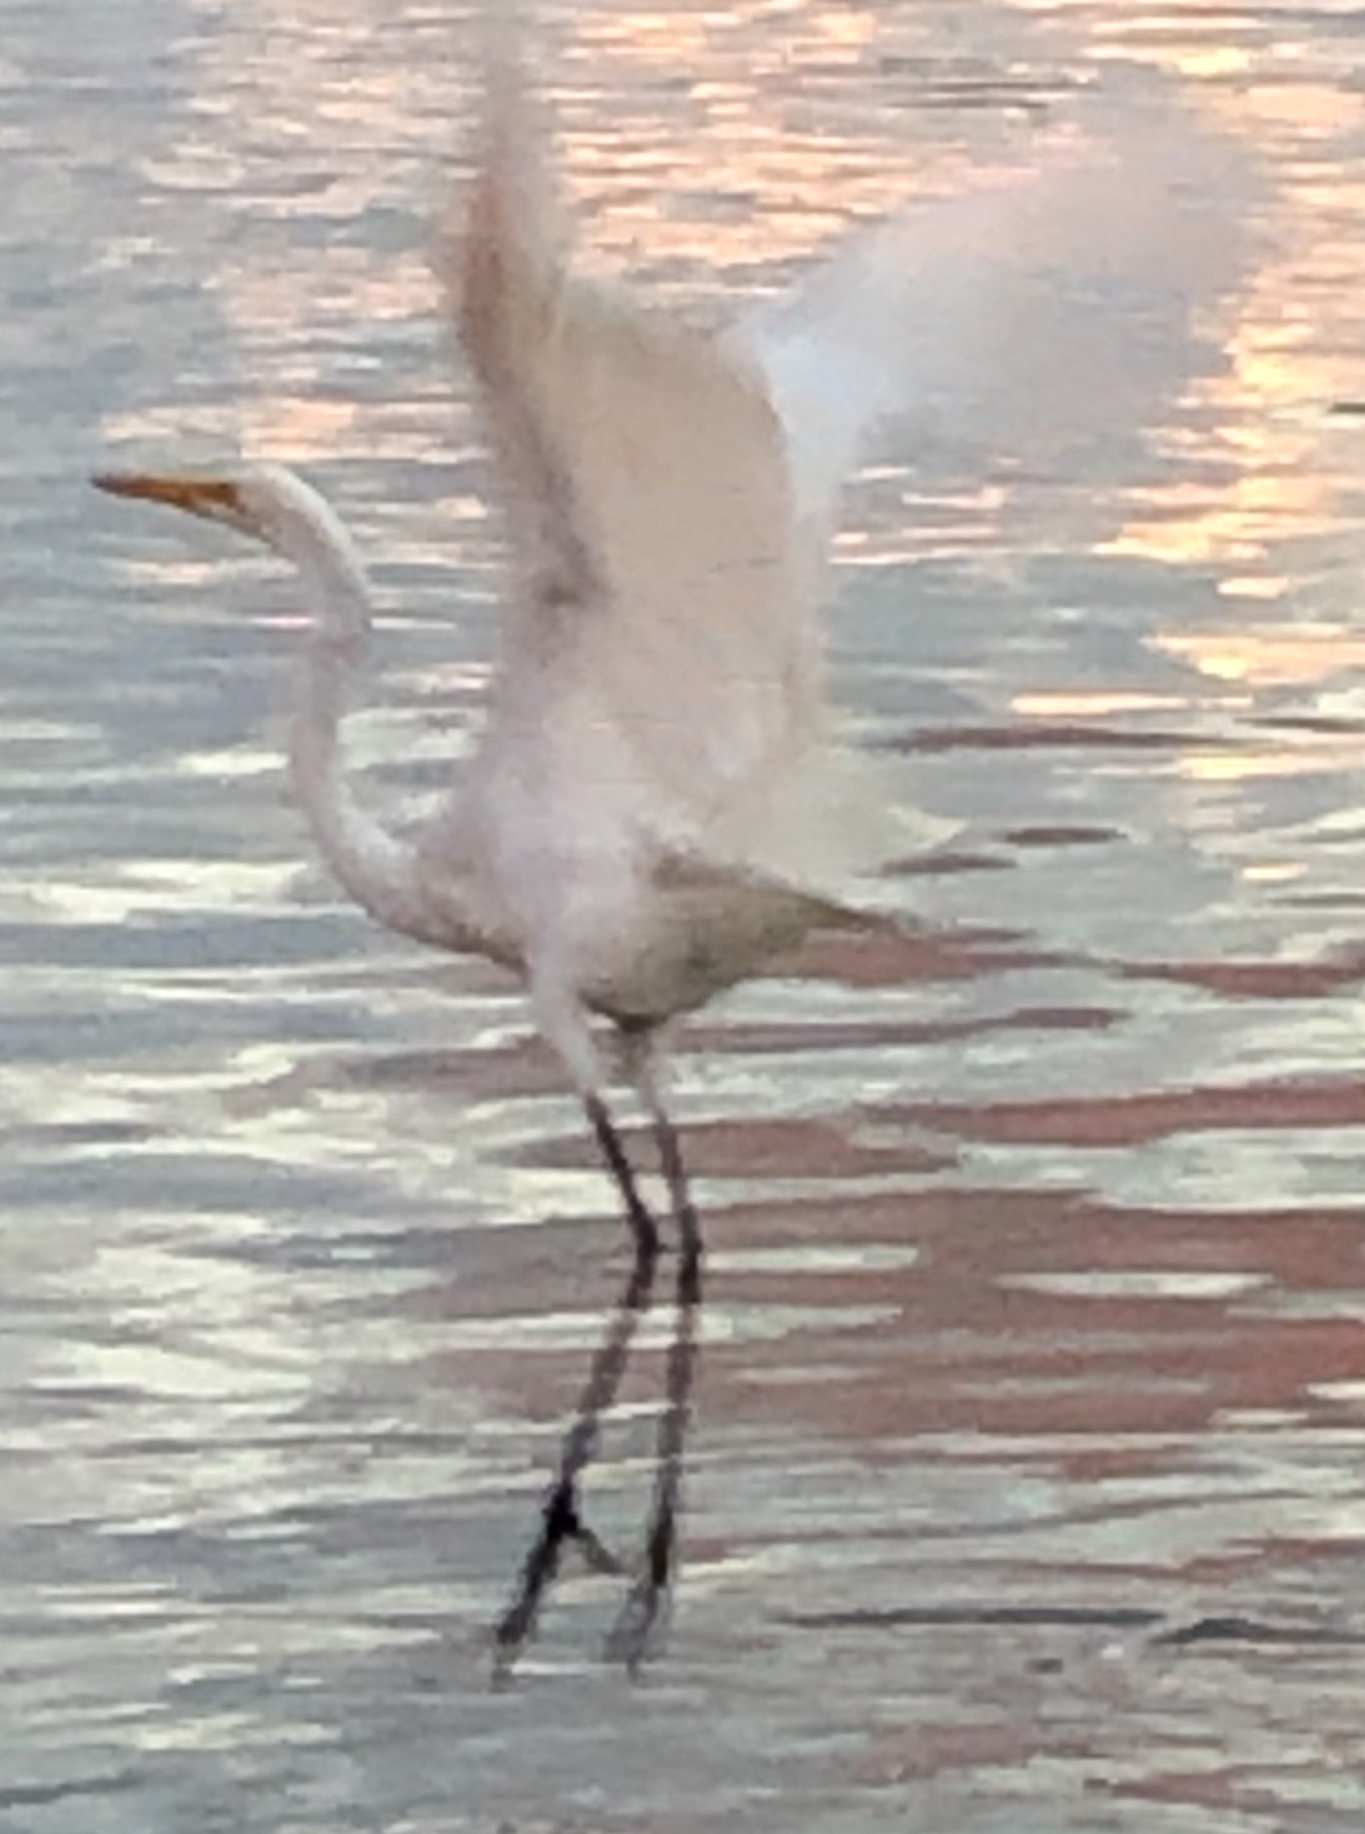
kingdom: Animalia
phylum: Chordata
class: Aves
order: Pelecaniformes
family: Ardeidae
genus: Ardea
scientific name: Ardea alba
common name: Great egret
